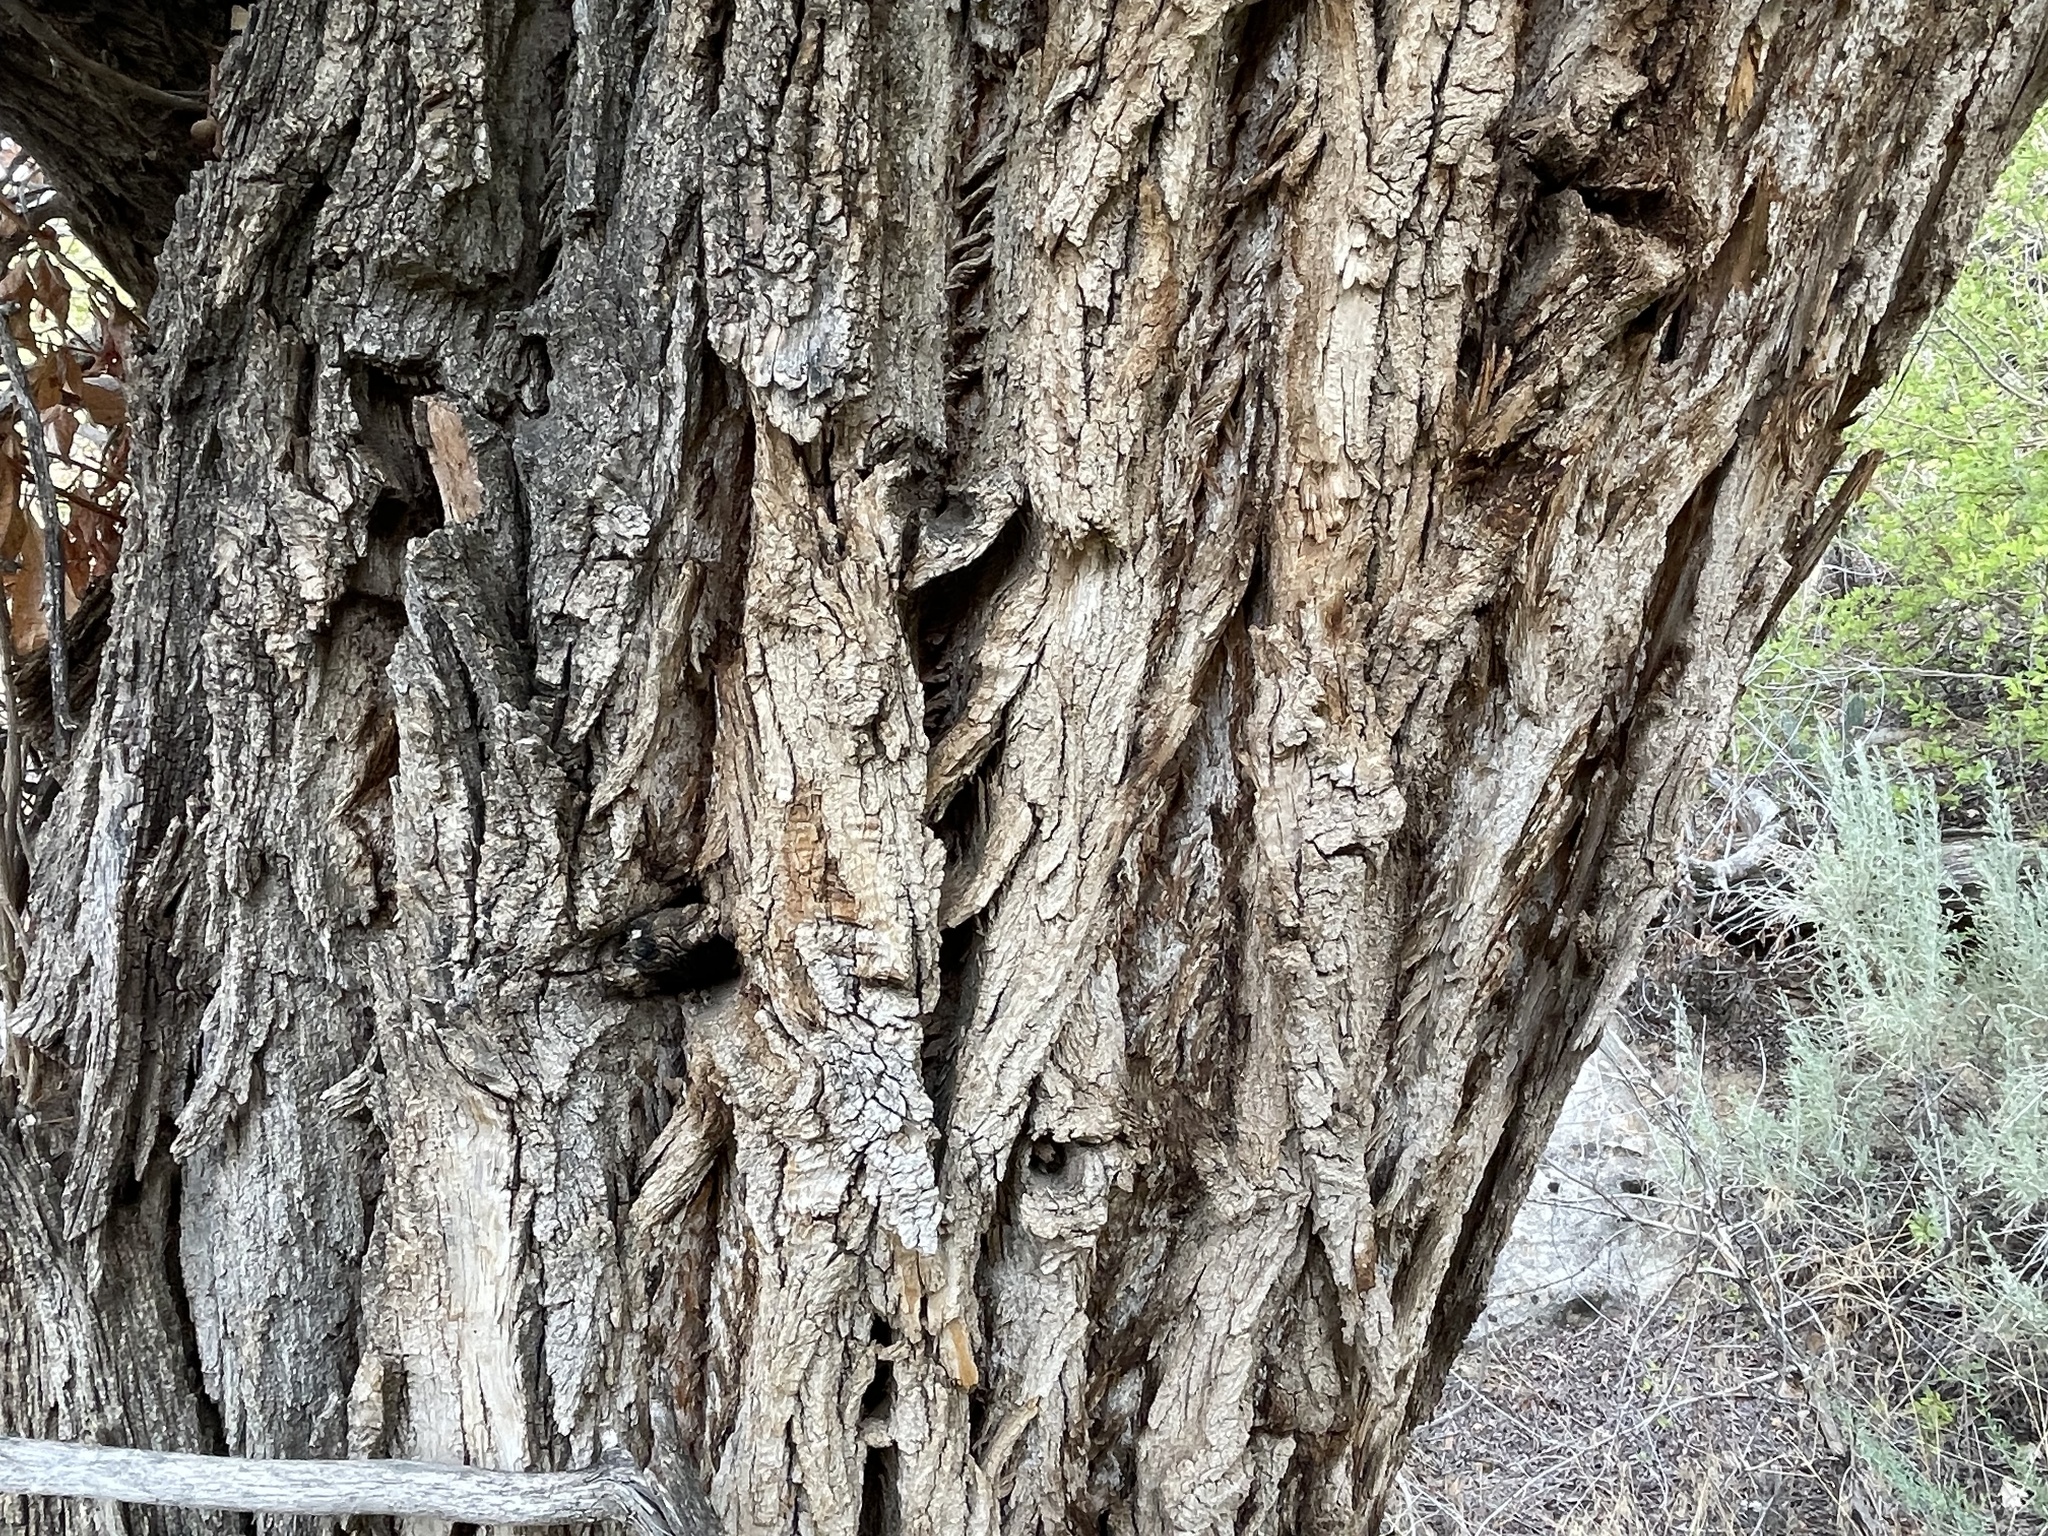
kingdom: Plantae
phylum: Tracheophyta
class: Magnoliopsida
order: Malpighiales
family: Salicaceae
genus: Populus
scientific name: Populus angustifolia
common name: Willow cottonwood
